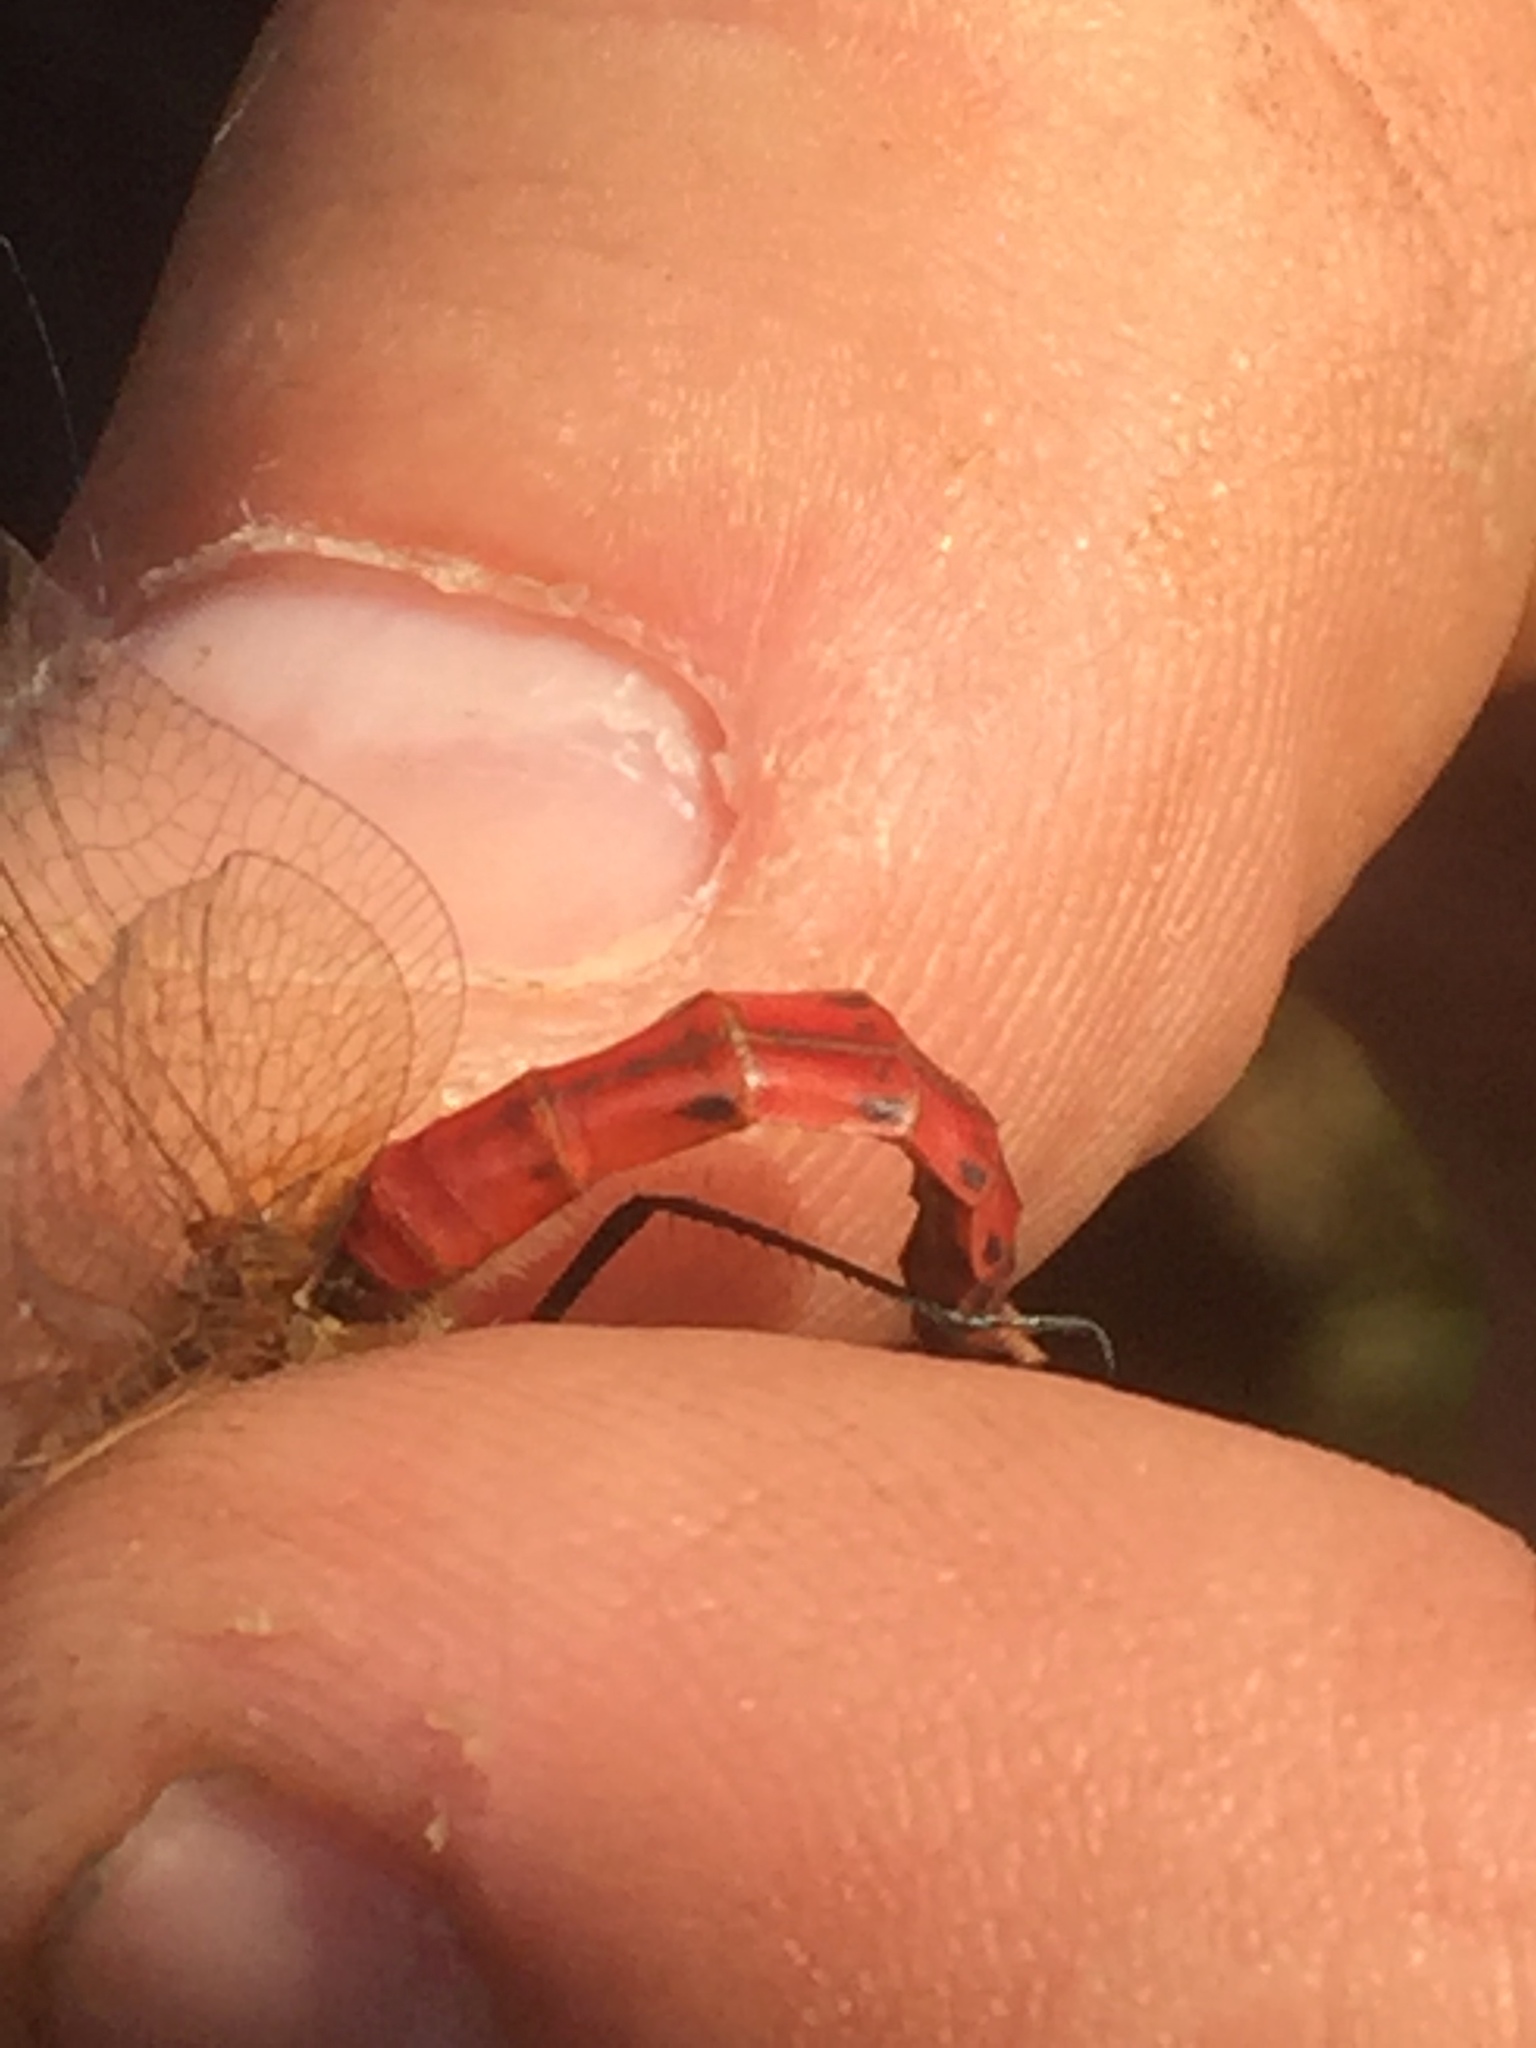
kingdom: Animalia
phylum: Arthropoda
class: Insecta
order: Odonata
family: Libellulidae
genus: Sympetrum
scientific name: Sympetrum depressiusculum
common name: Spotted darter
